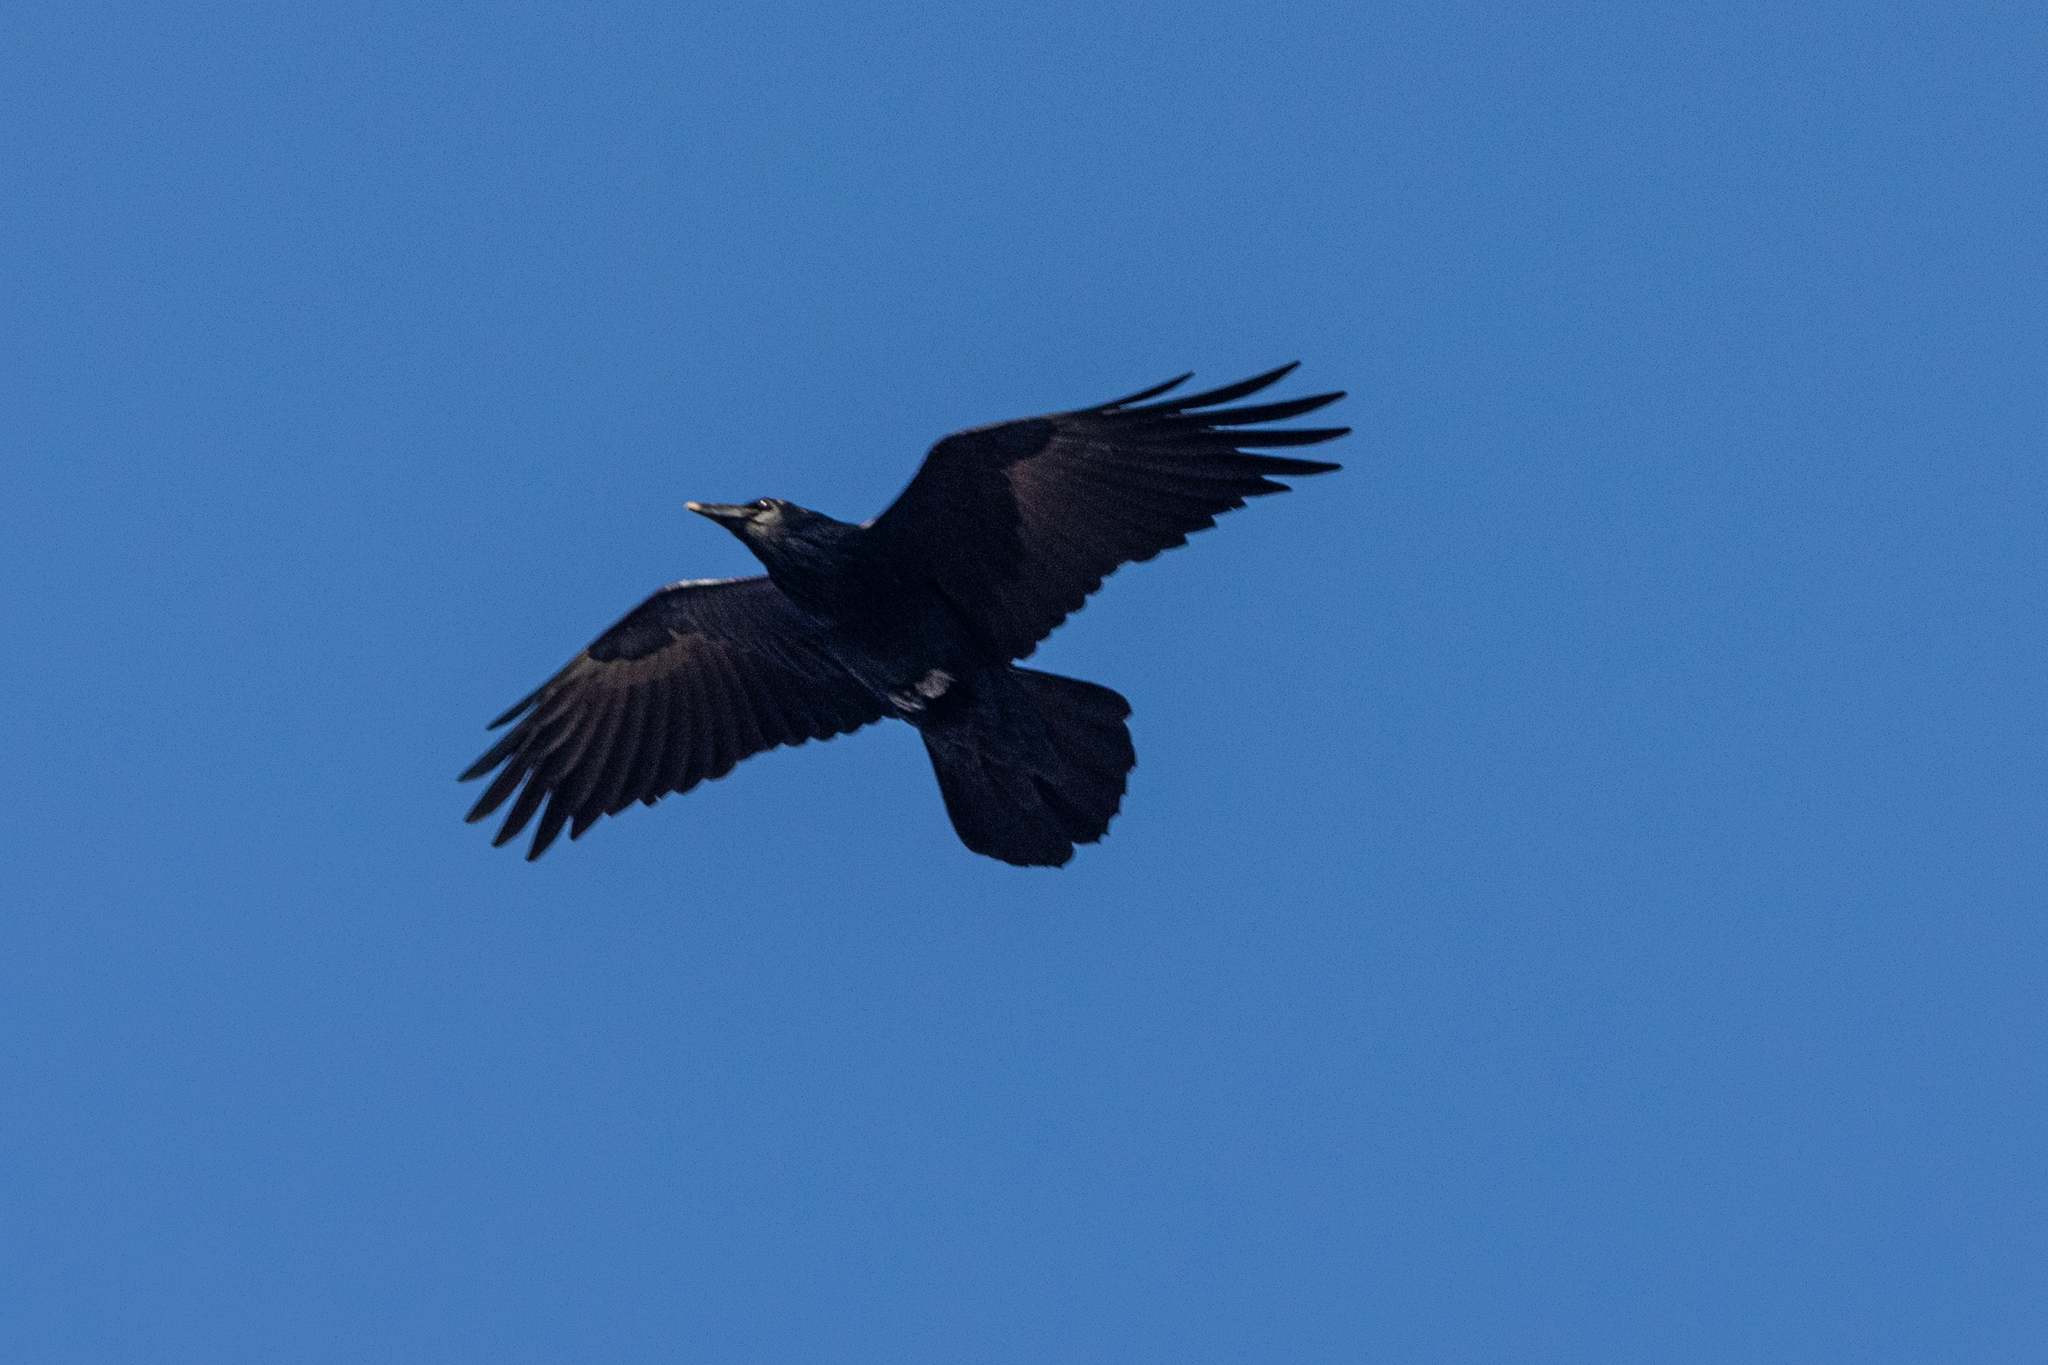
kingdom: Animalia
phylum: Chordata
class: Aves
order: Passeriformes
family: Corvidae
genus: Corvus
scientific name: Corvus corax
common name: Common raven
